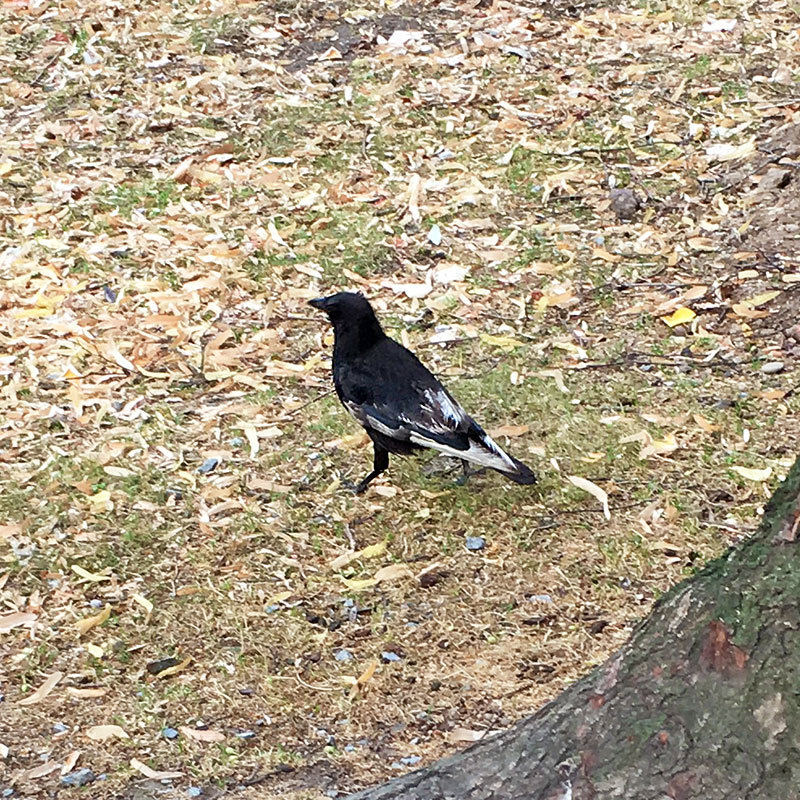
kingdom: Animalia
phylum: Chordata
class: Aves
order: Passeriformes
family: Corvidae
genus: Corvus
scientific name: Corvus corone
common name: Carrion crow
